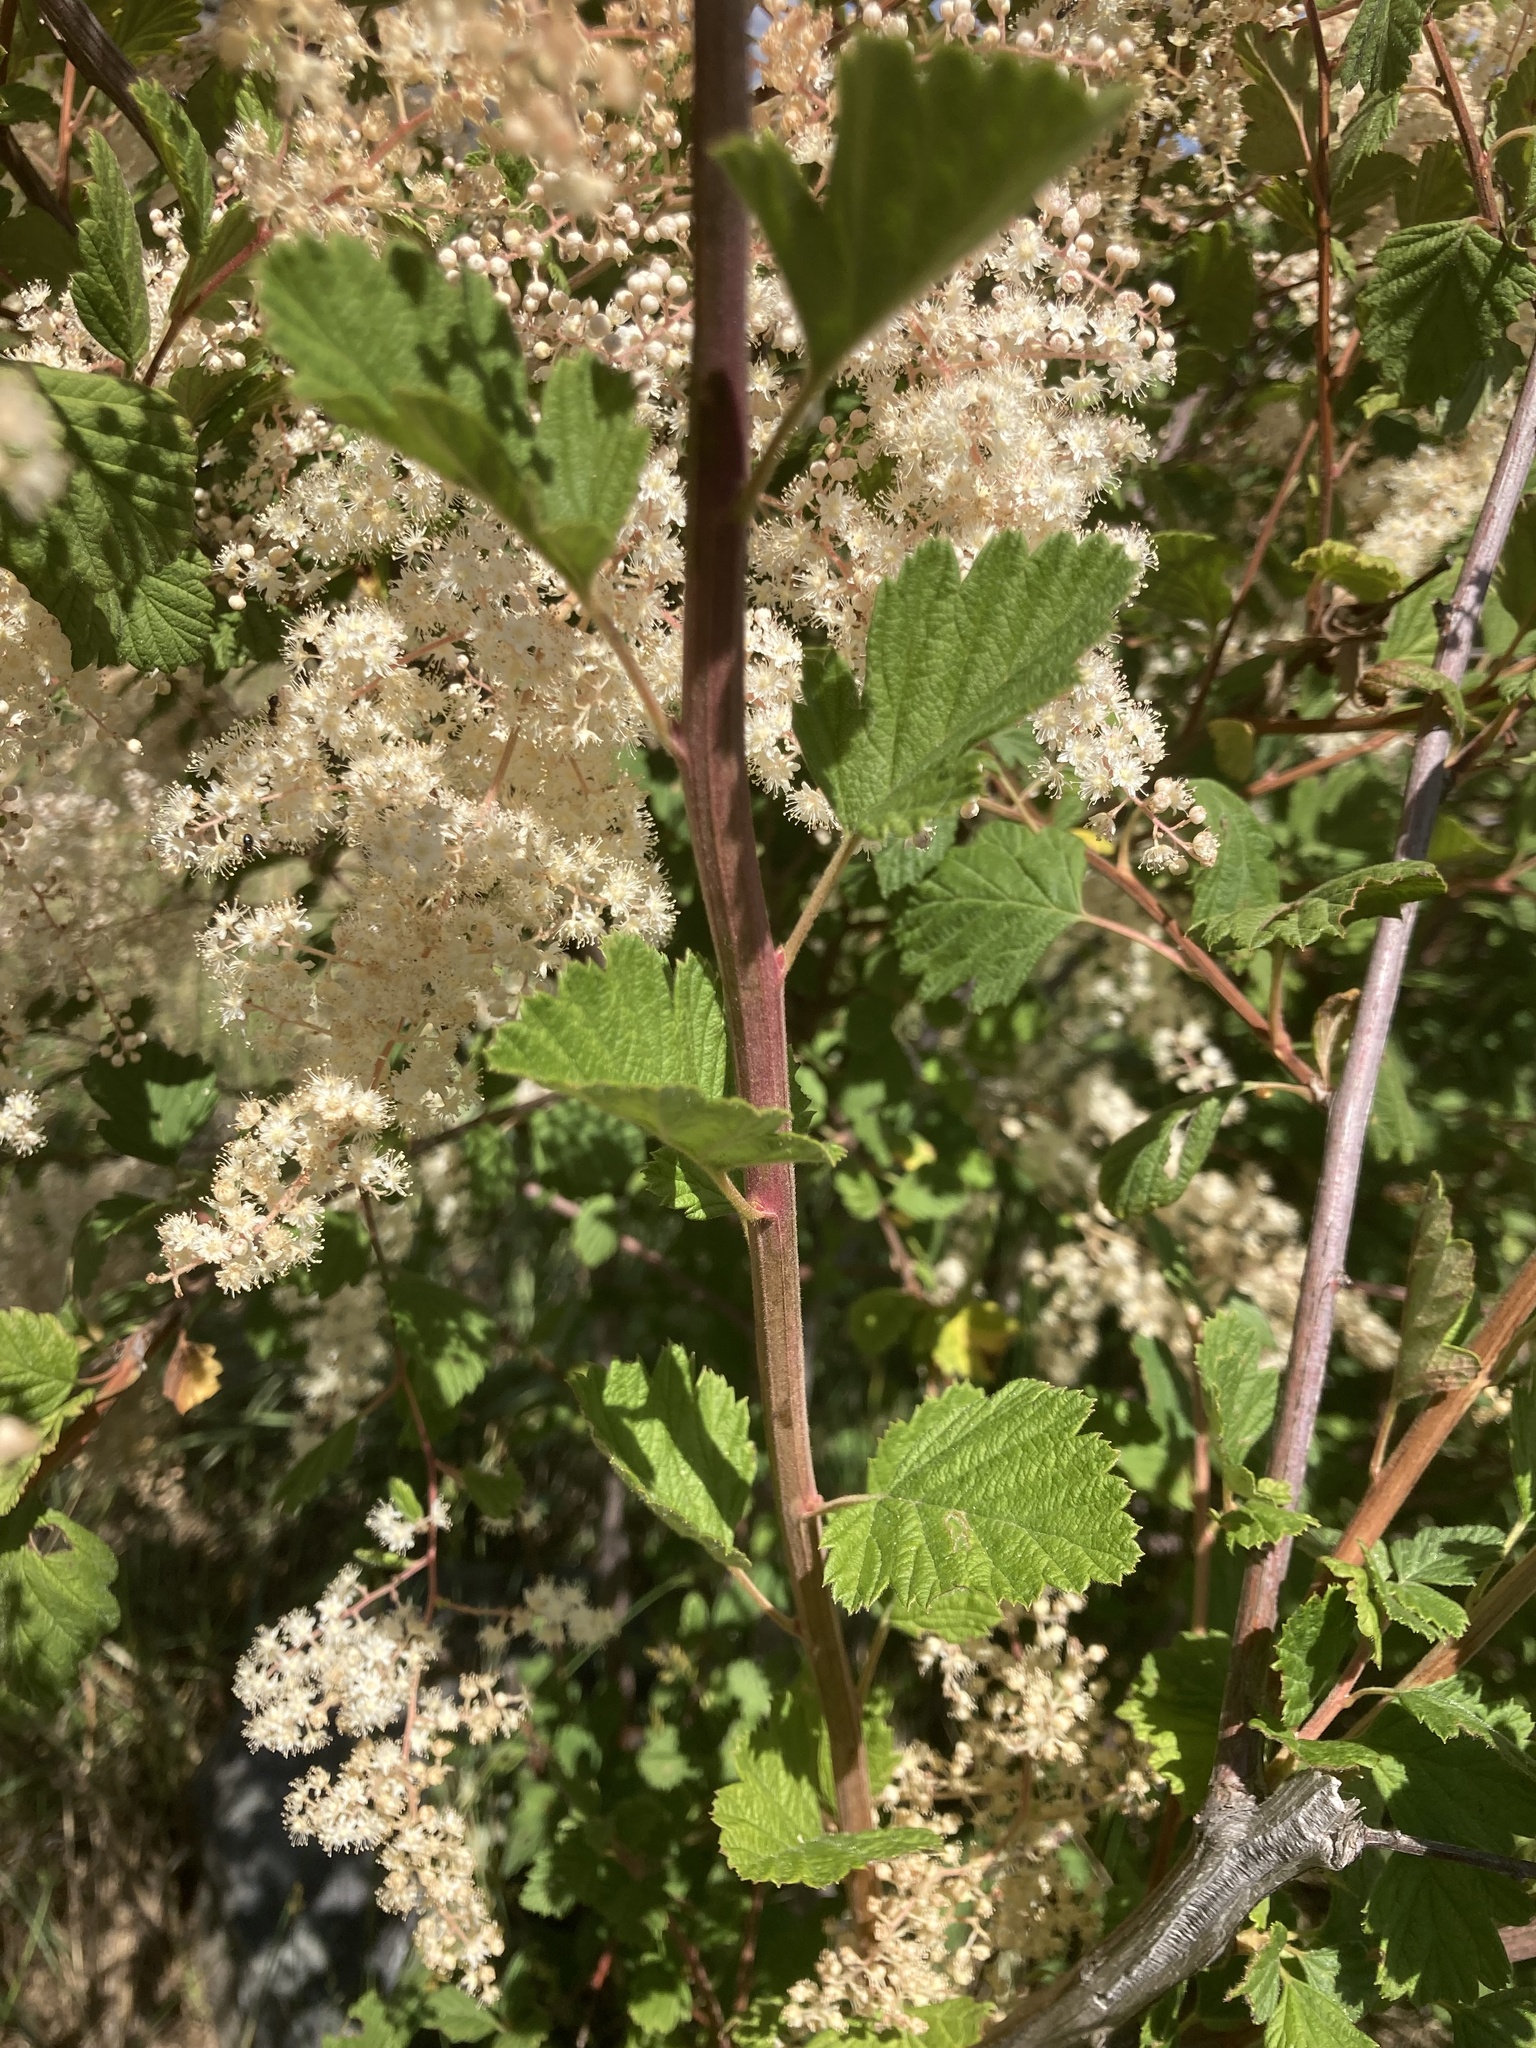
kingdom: Plantae
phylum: Tracheophyta
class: Magnoliopsida
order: Rosales
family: Rosaceae
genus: Holodiscus
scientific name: Holodiscus discolor
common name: Oceanspray
